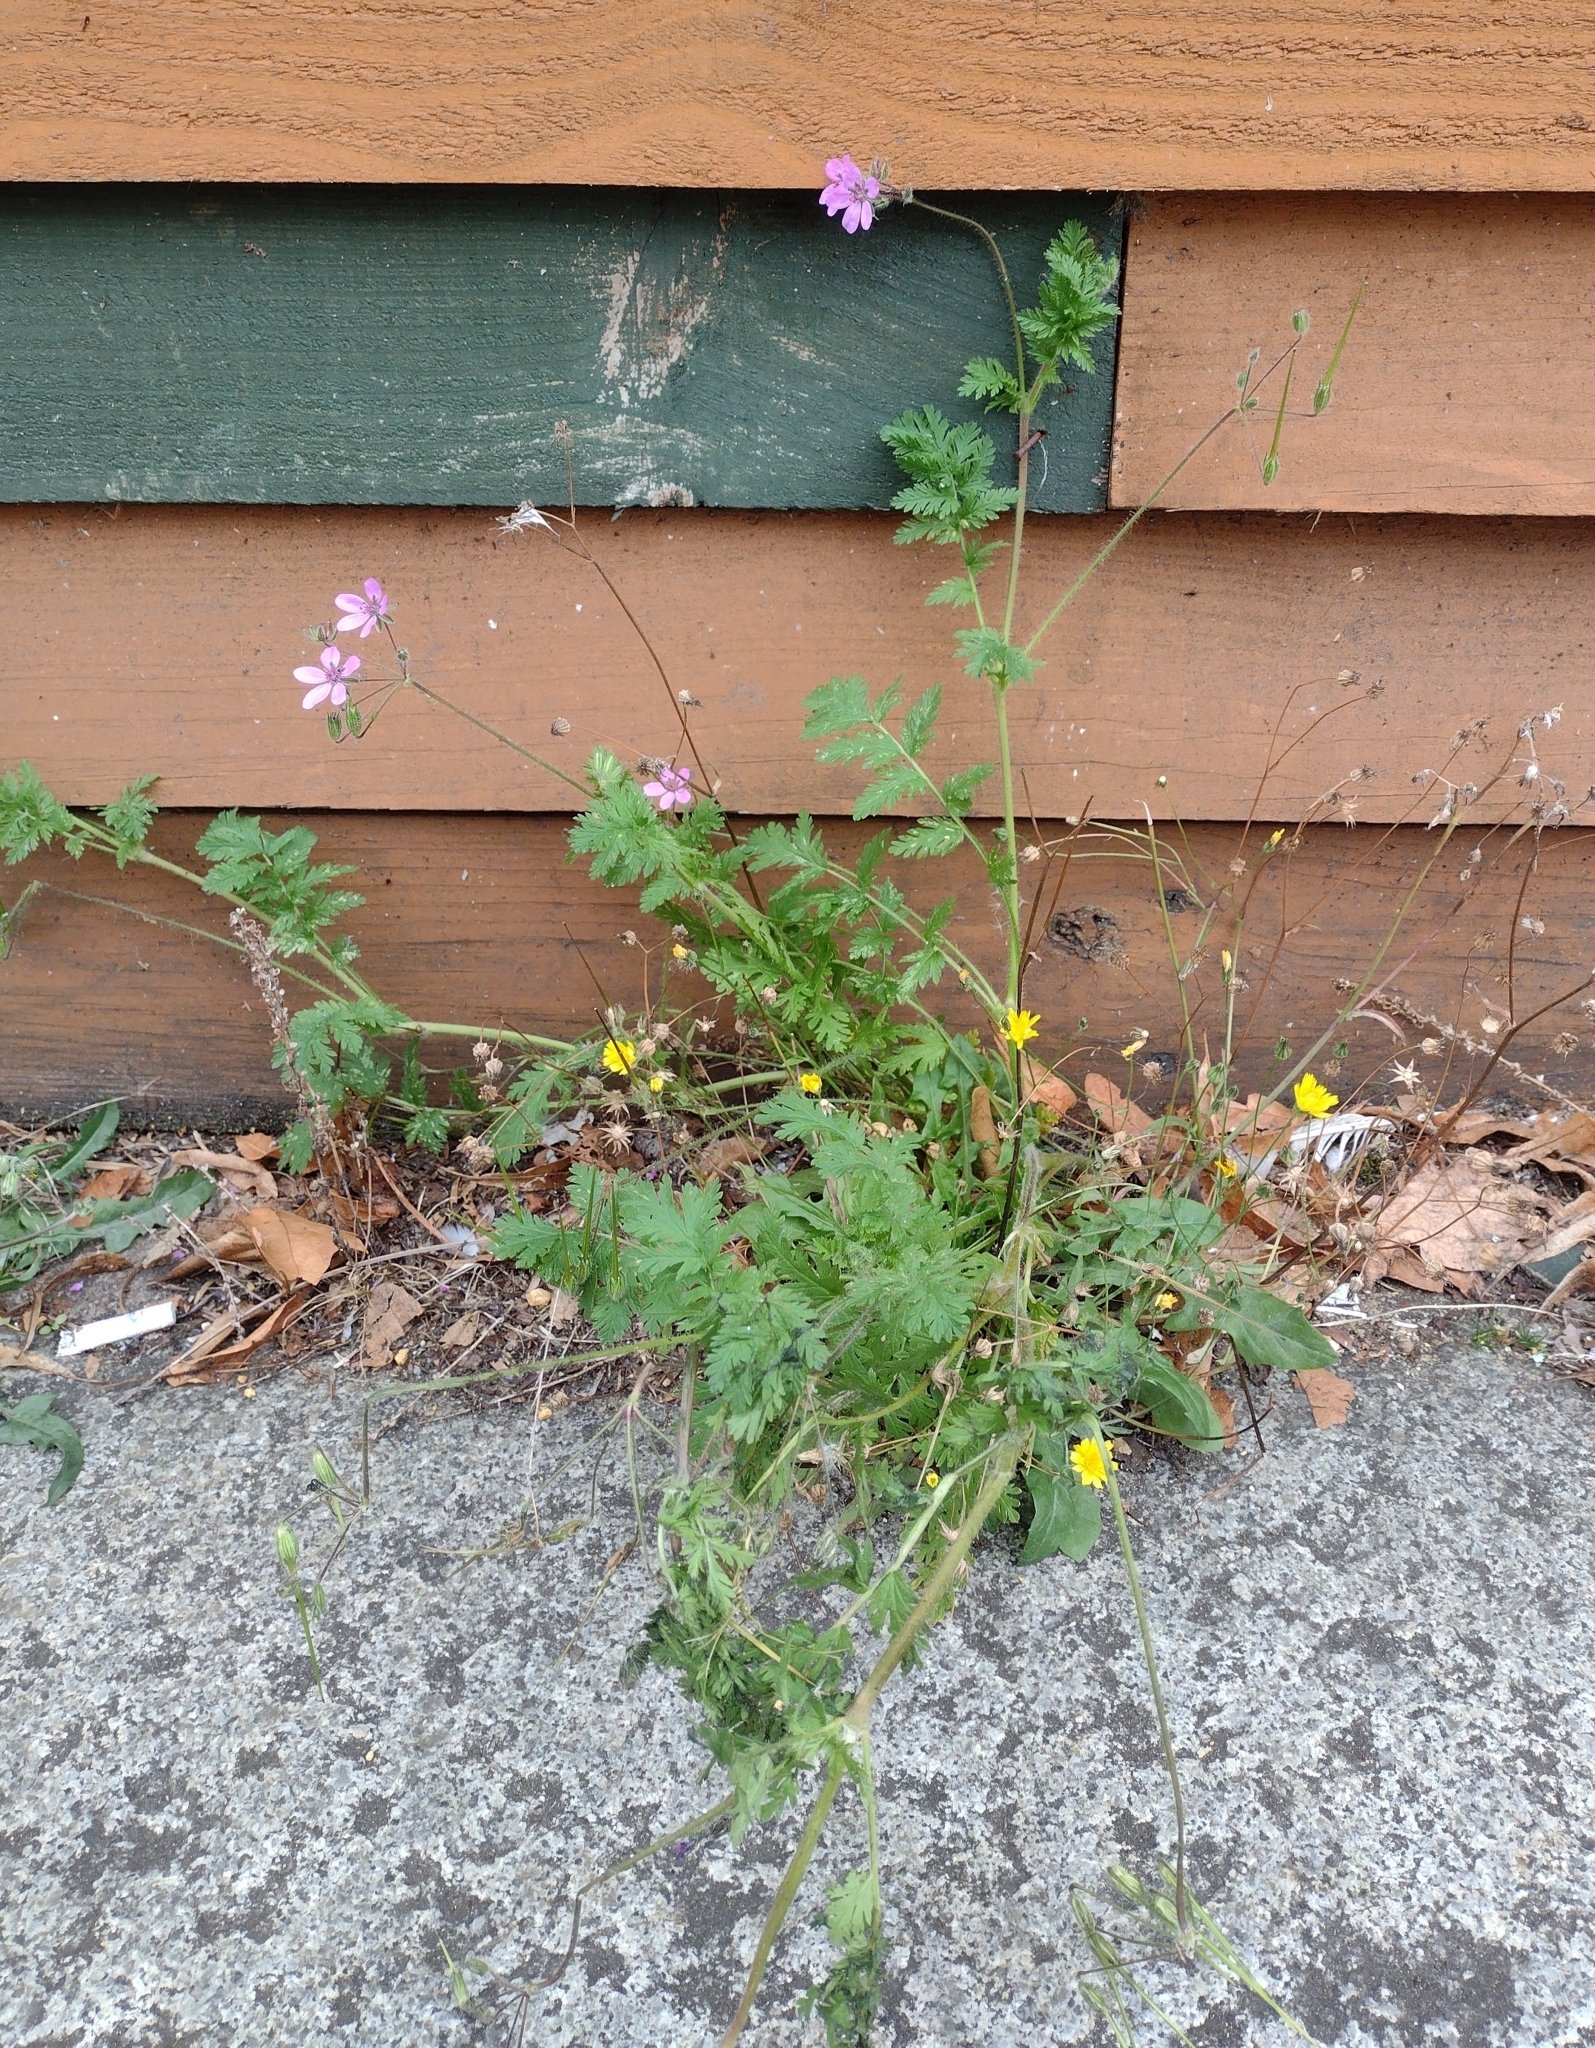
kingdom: Plantae
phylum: Tracheophyta
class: Magnoliopsida
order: Geraniales
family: Geraniaceae
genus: Erodium
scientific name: Erodium cicutarium
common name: Common stork's-bill
